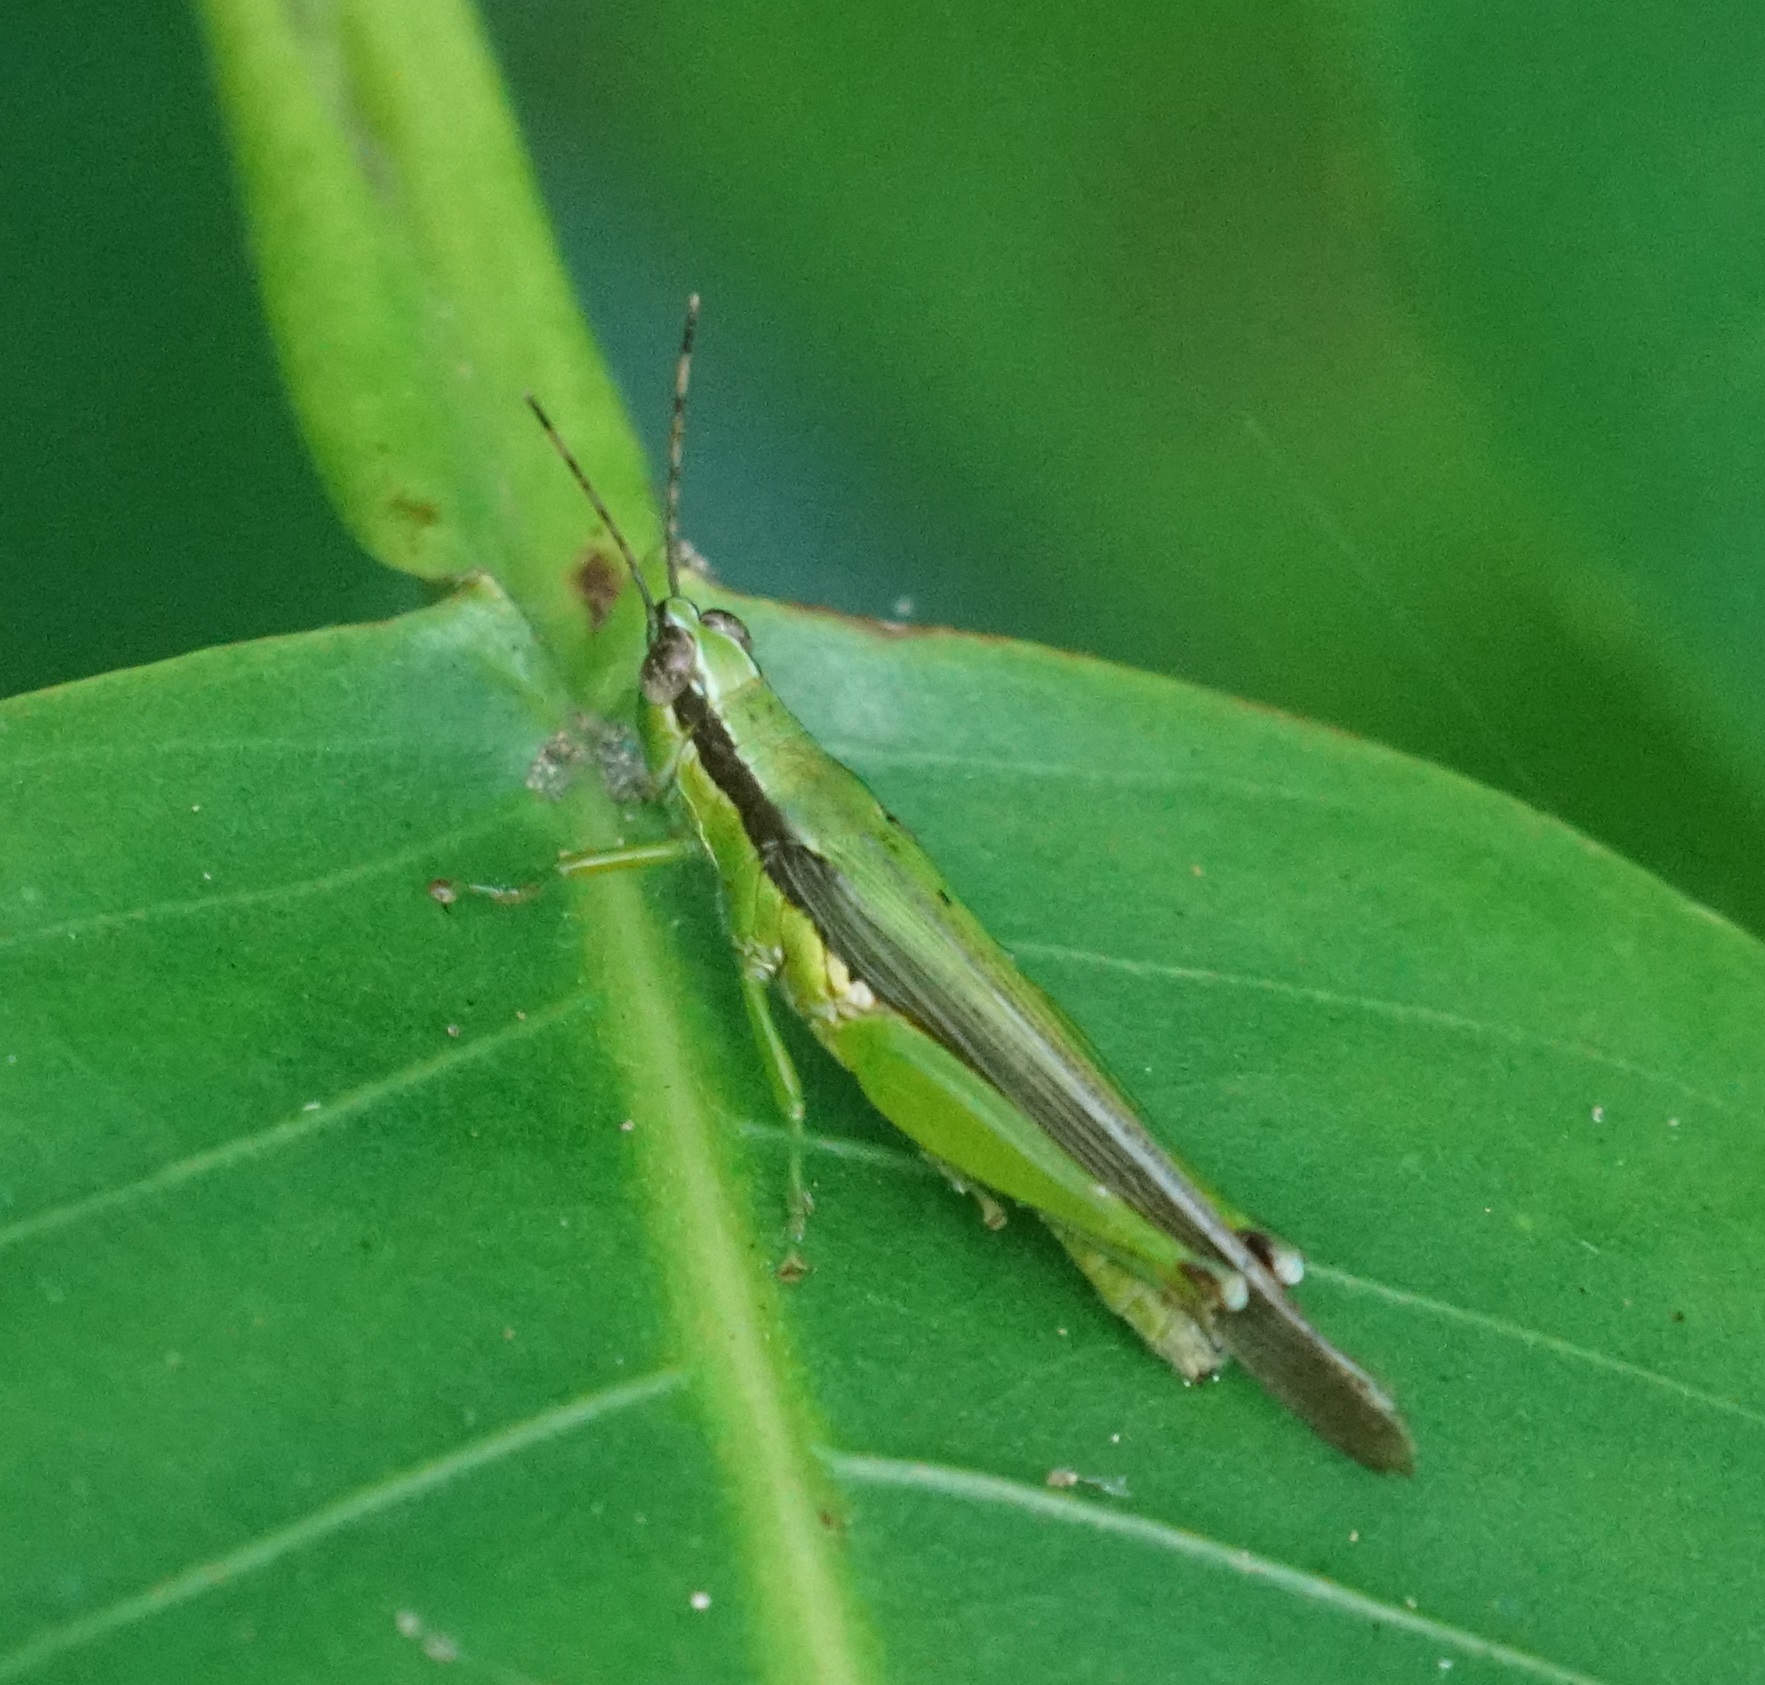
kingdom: Animalia
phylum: Arthropoda
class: Insecta
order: Orthoptera
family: Acrididae
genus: Gesonula
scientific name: Gesonula mundata
